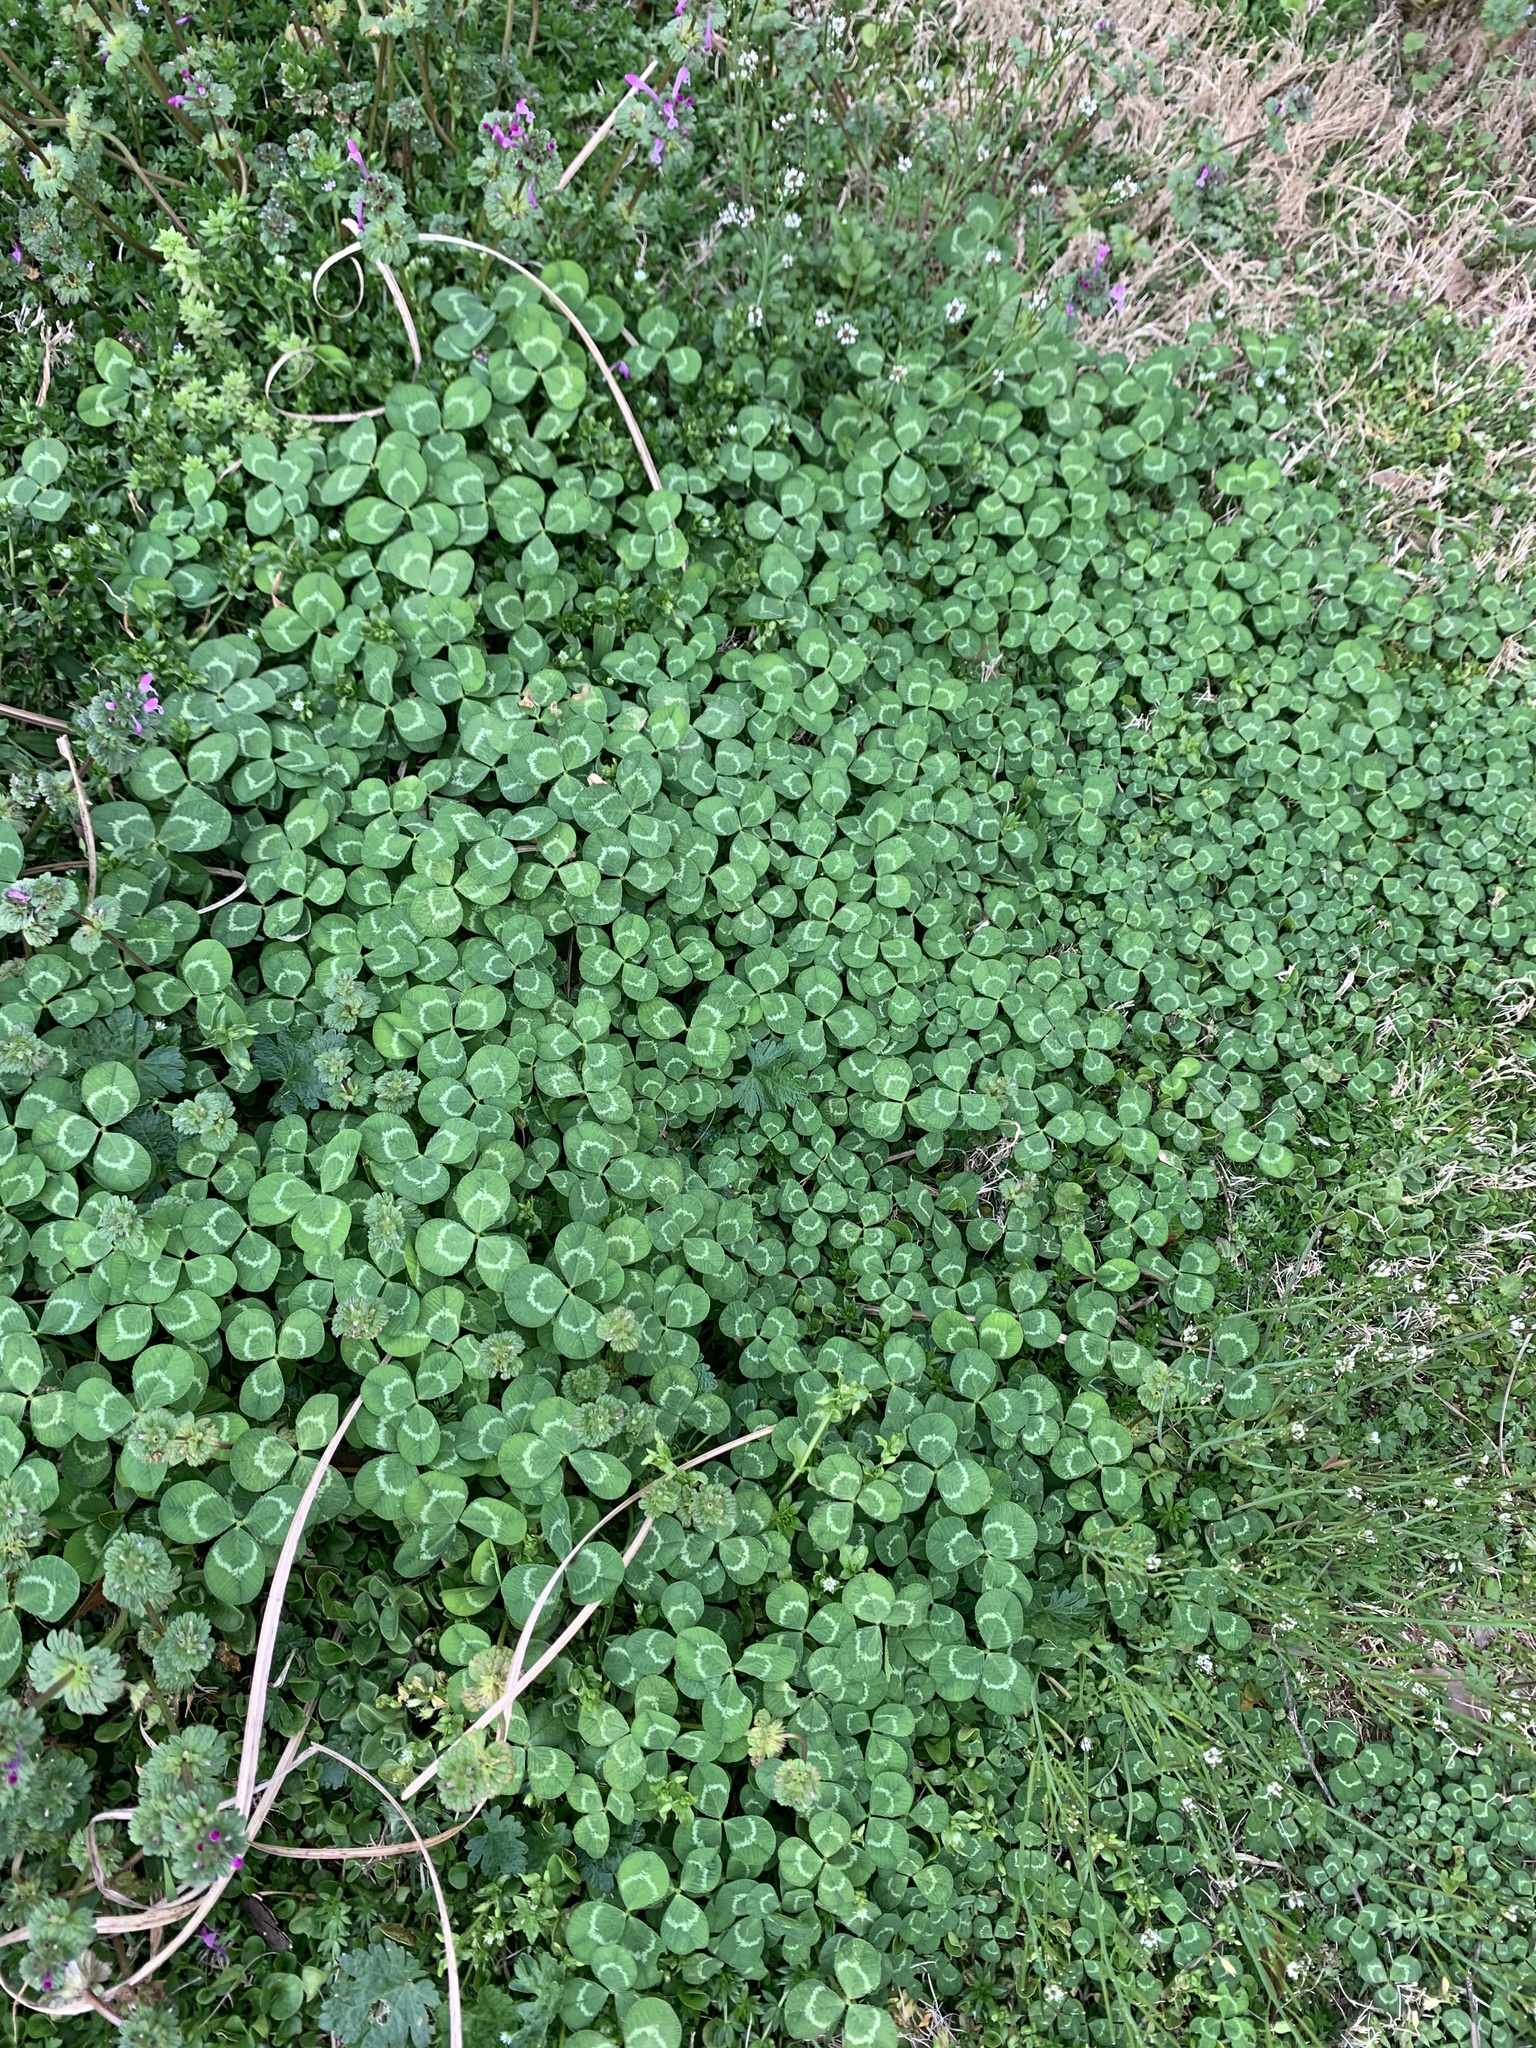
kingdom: Plantae
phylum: Tracheophyta
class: Magnoliopsida
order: Fabales
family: Fabaceae
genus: Trifolium
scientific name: Trifolium repens
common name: White clover
